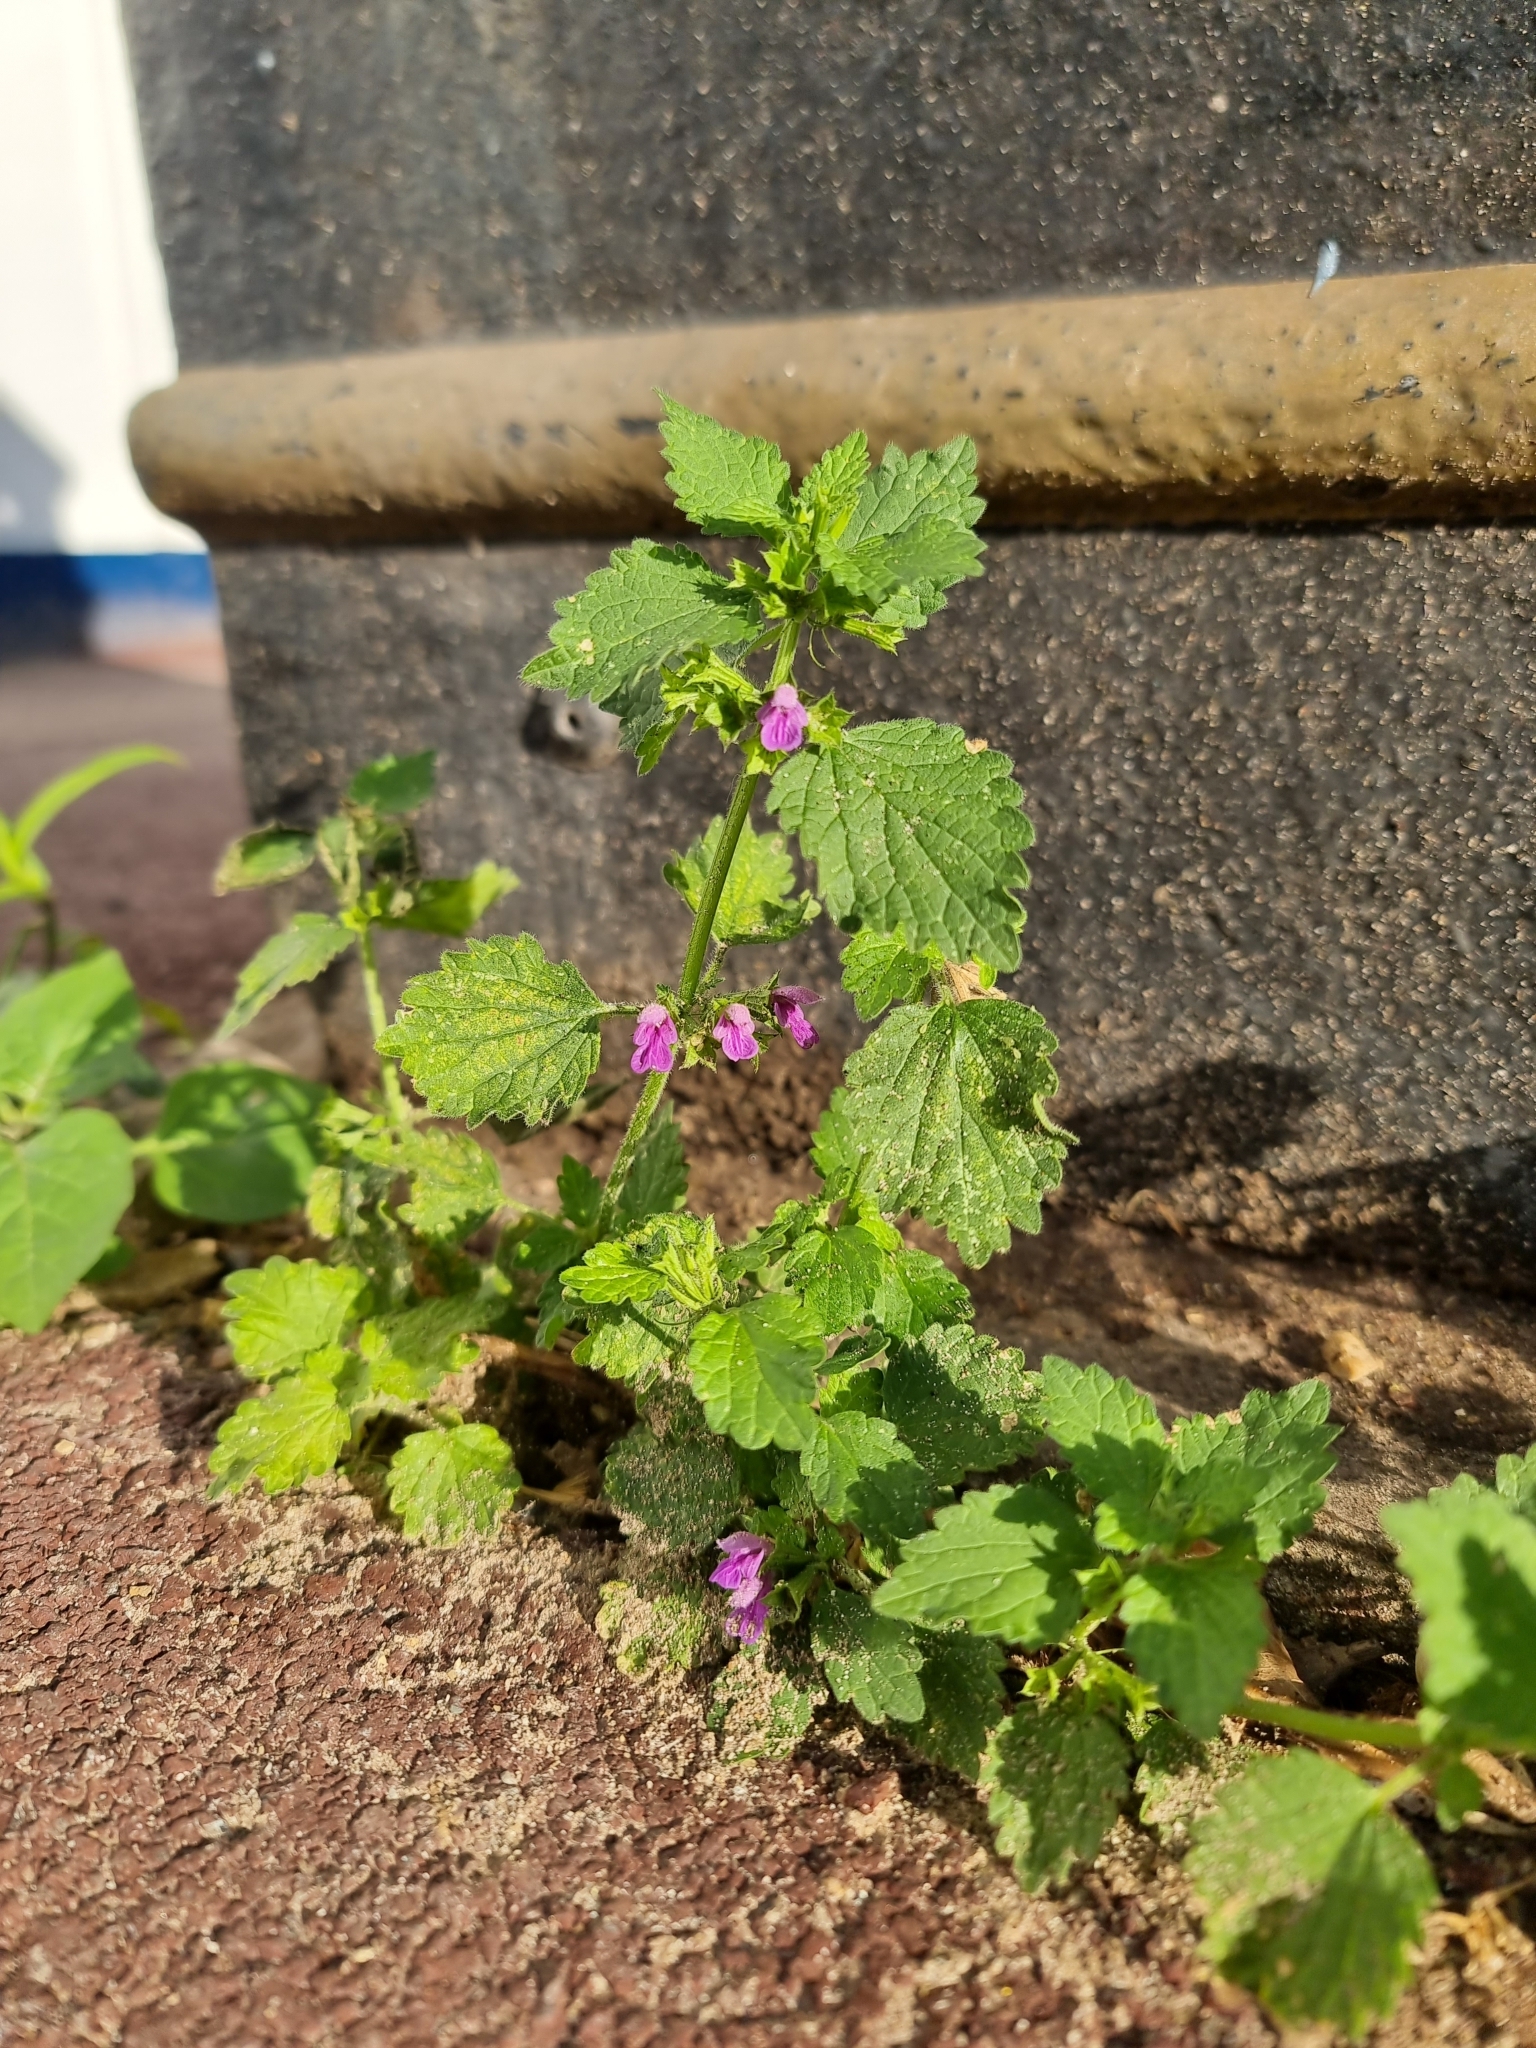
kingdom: Plantae
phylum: Tracheophyta
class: Magnoliopsida
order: Lamiales
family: Lamiaceae
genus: Ballota
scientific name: Ballota nigra
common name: Black horehound
